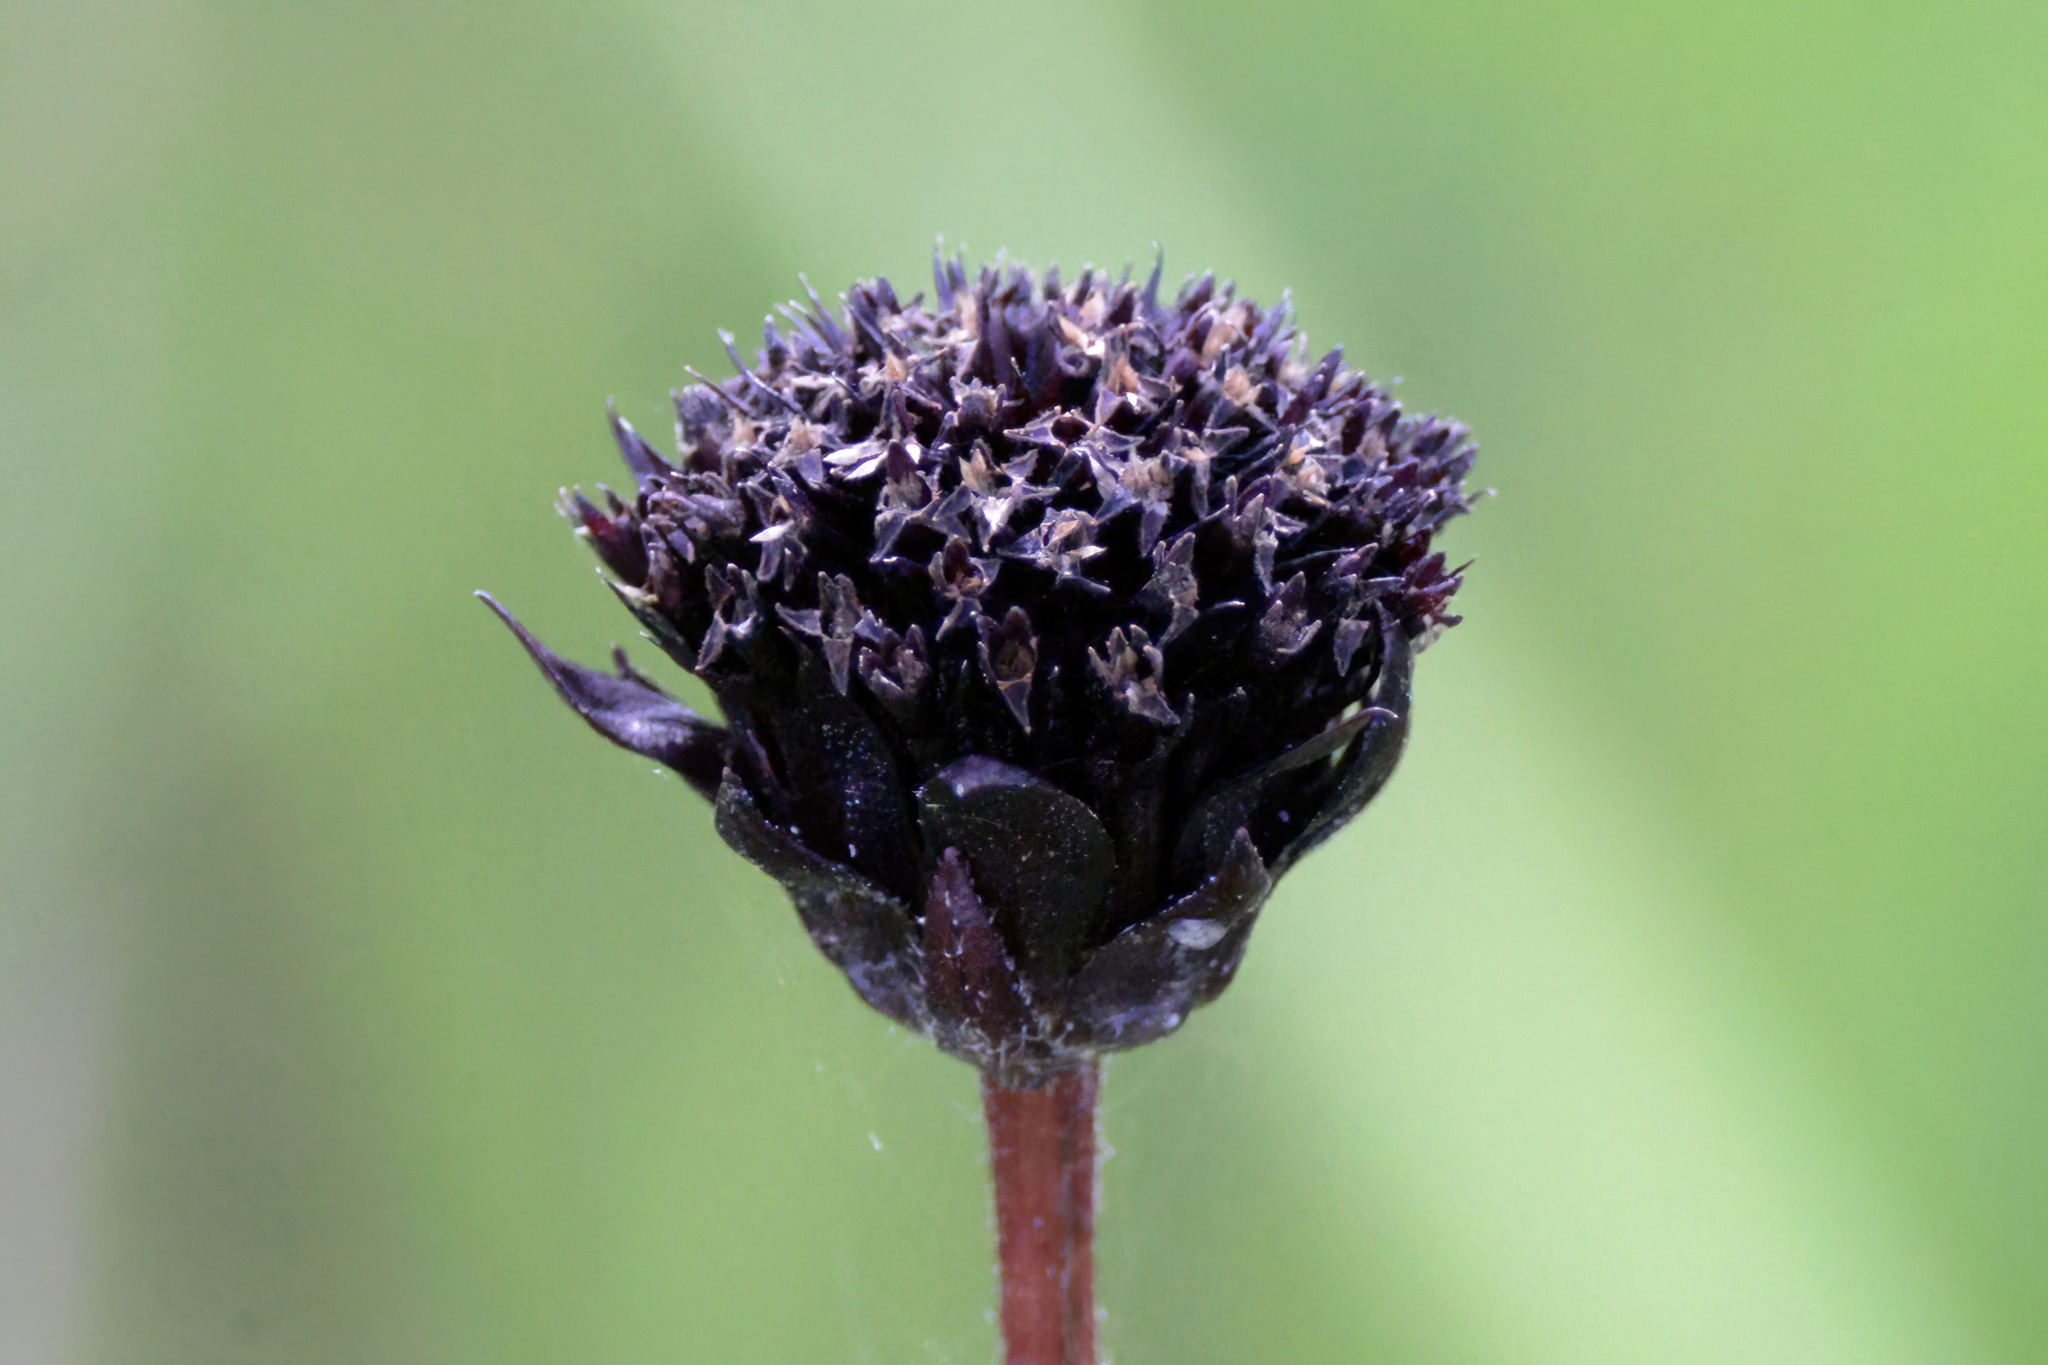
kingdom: Plantae
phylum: Tracheophyta
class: Magnoliopsida
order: Asterales
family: Asteraceae
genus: Helianthus
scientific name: Helianthus radula
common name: Pineland sunflower
